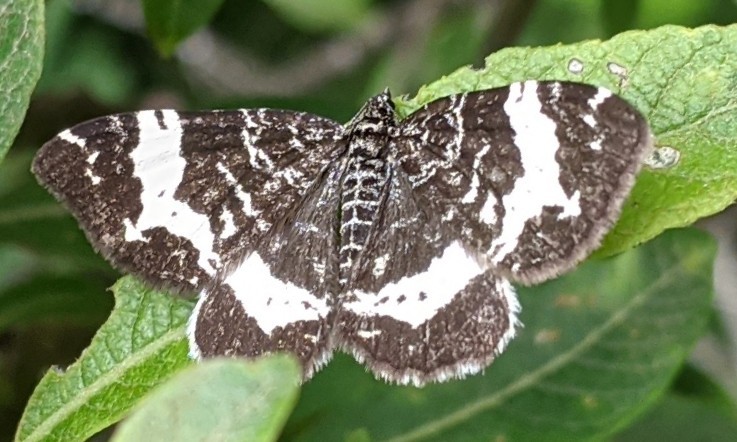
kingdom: Animalia
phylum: Arthropoda
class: Insecta
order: Lepidoptera
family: Geometridae
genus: Rheumaptera
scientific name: Rheumaptera
